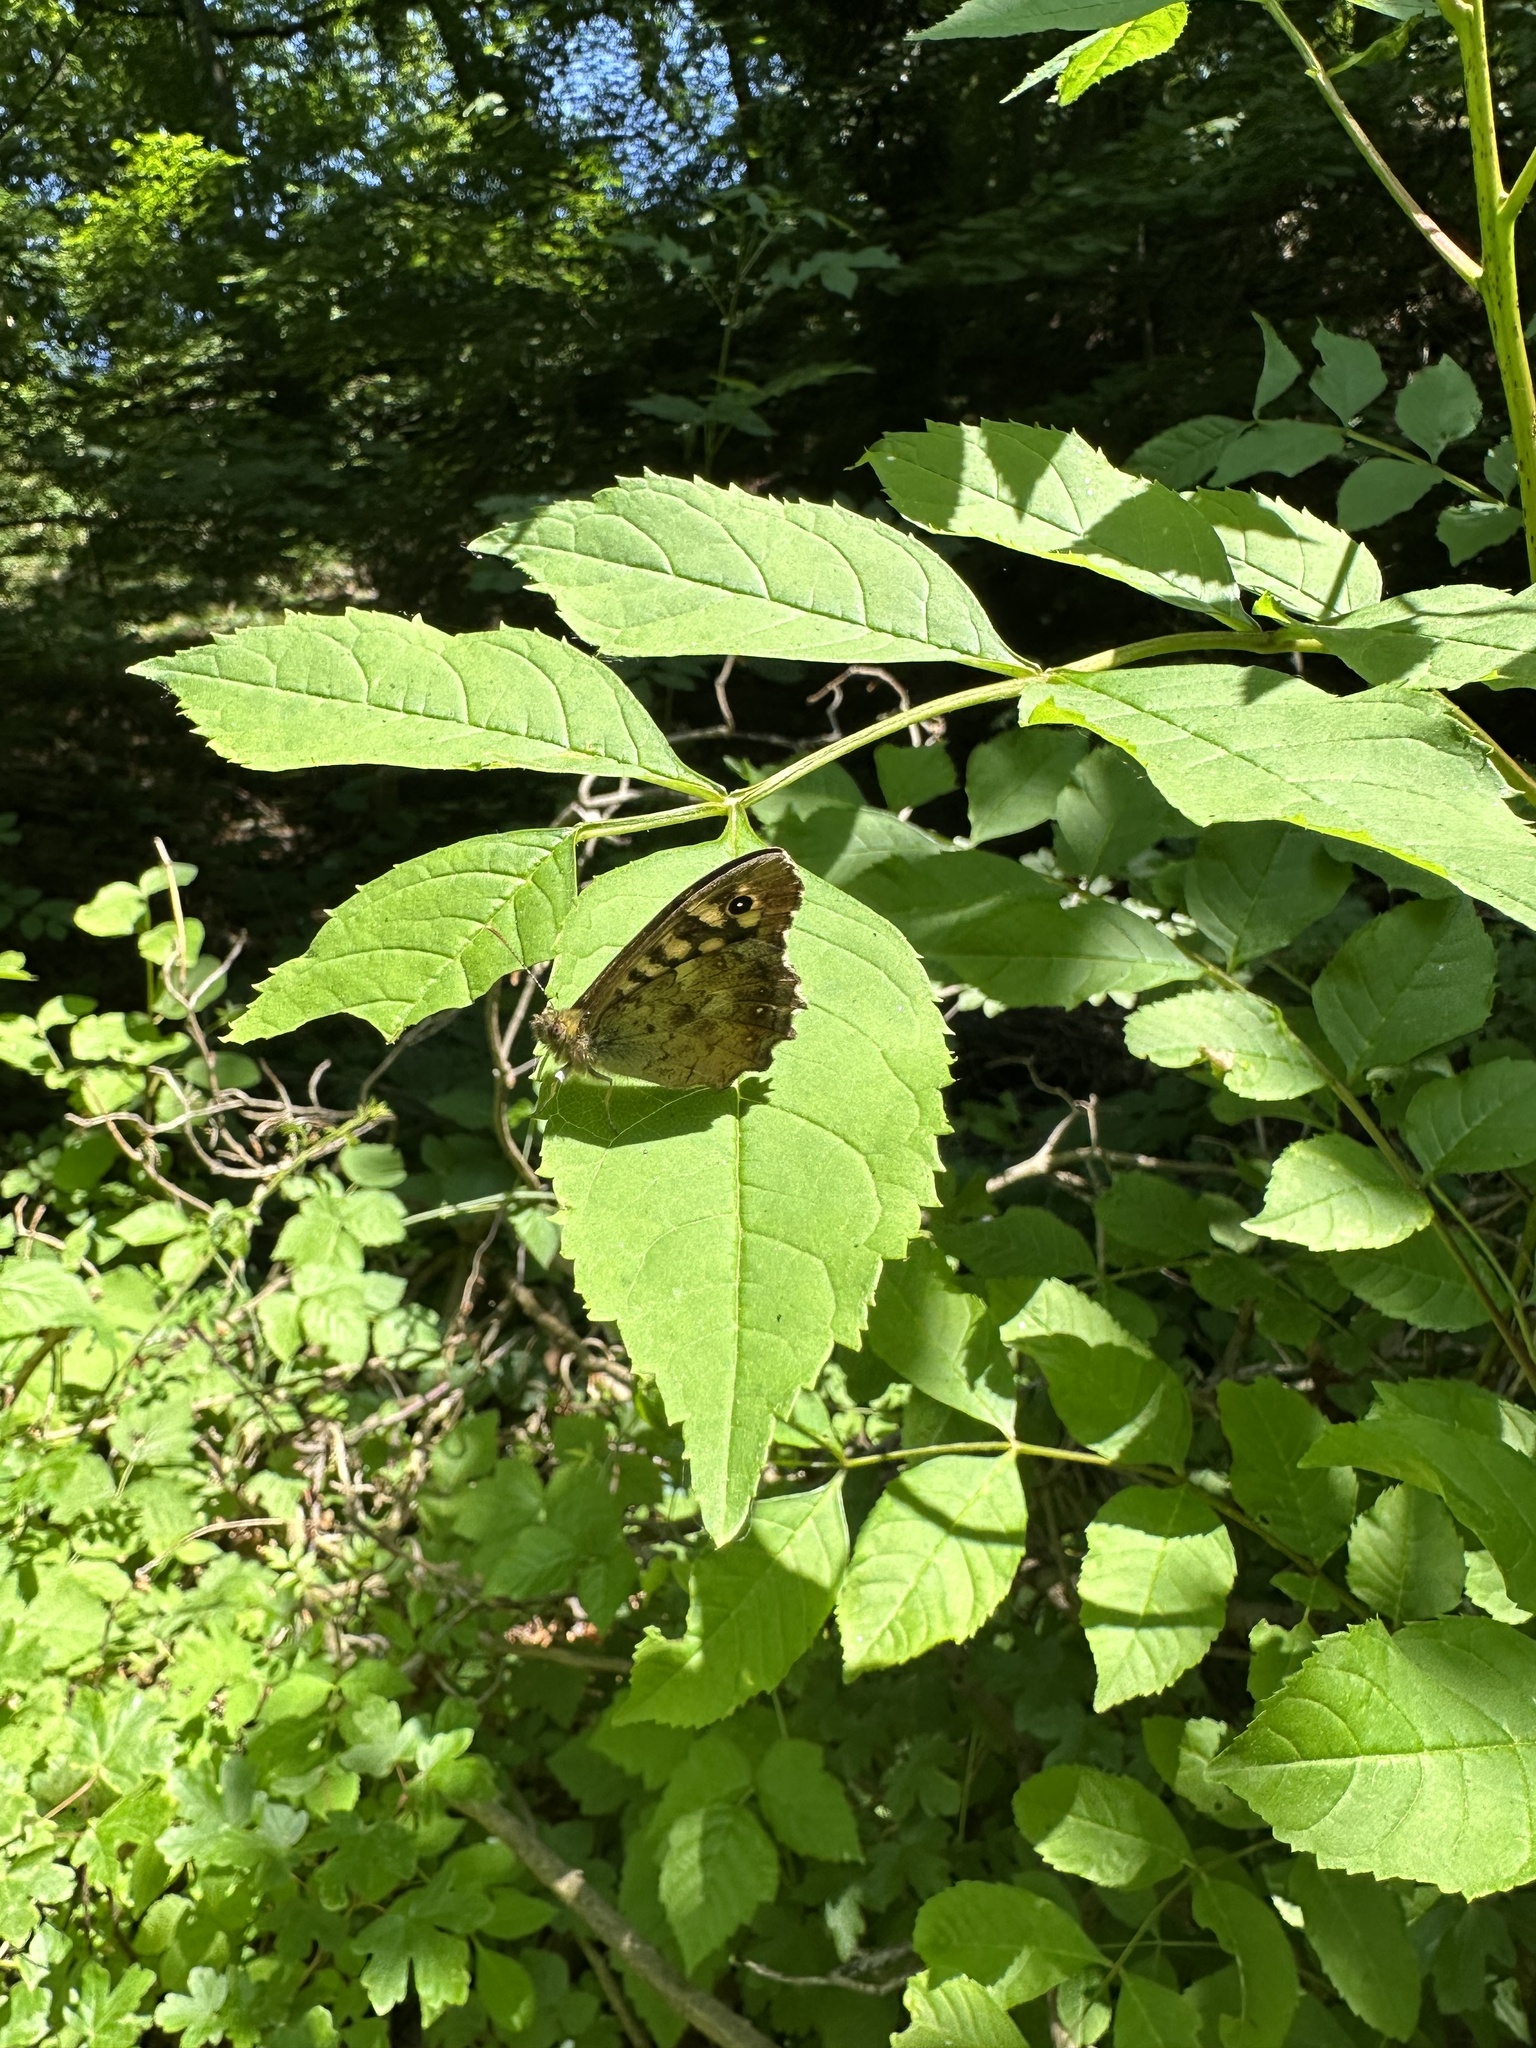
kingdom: Animalia
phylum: Arthropoda
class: Insecta
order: Lepidoptera
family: Nymphalidae
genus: Pararge
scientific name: Pararge aegeria
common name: Speckled wood
